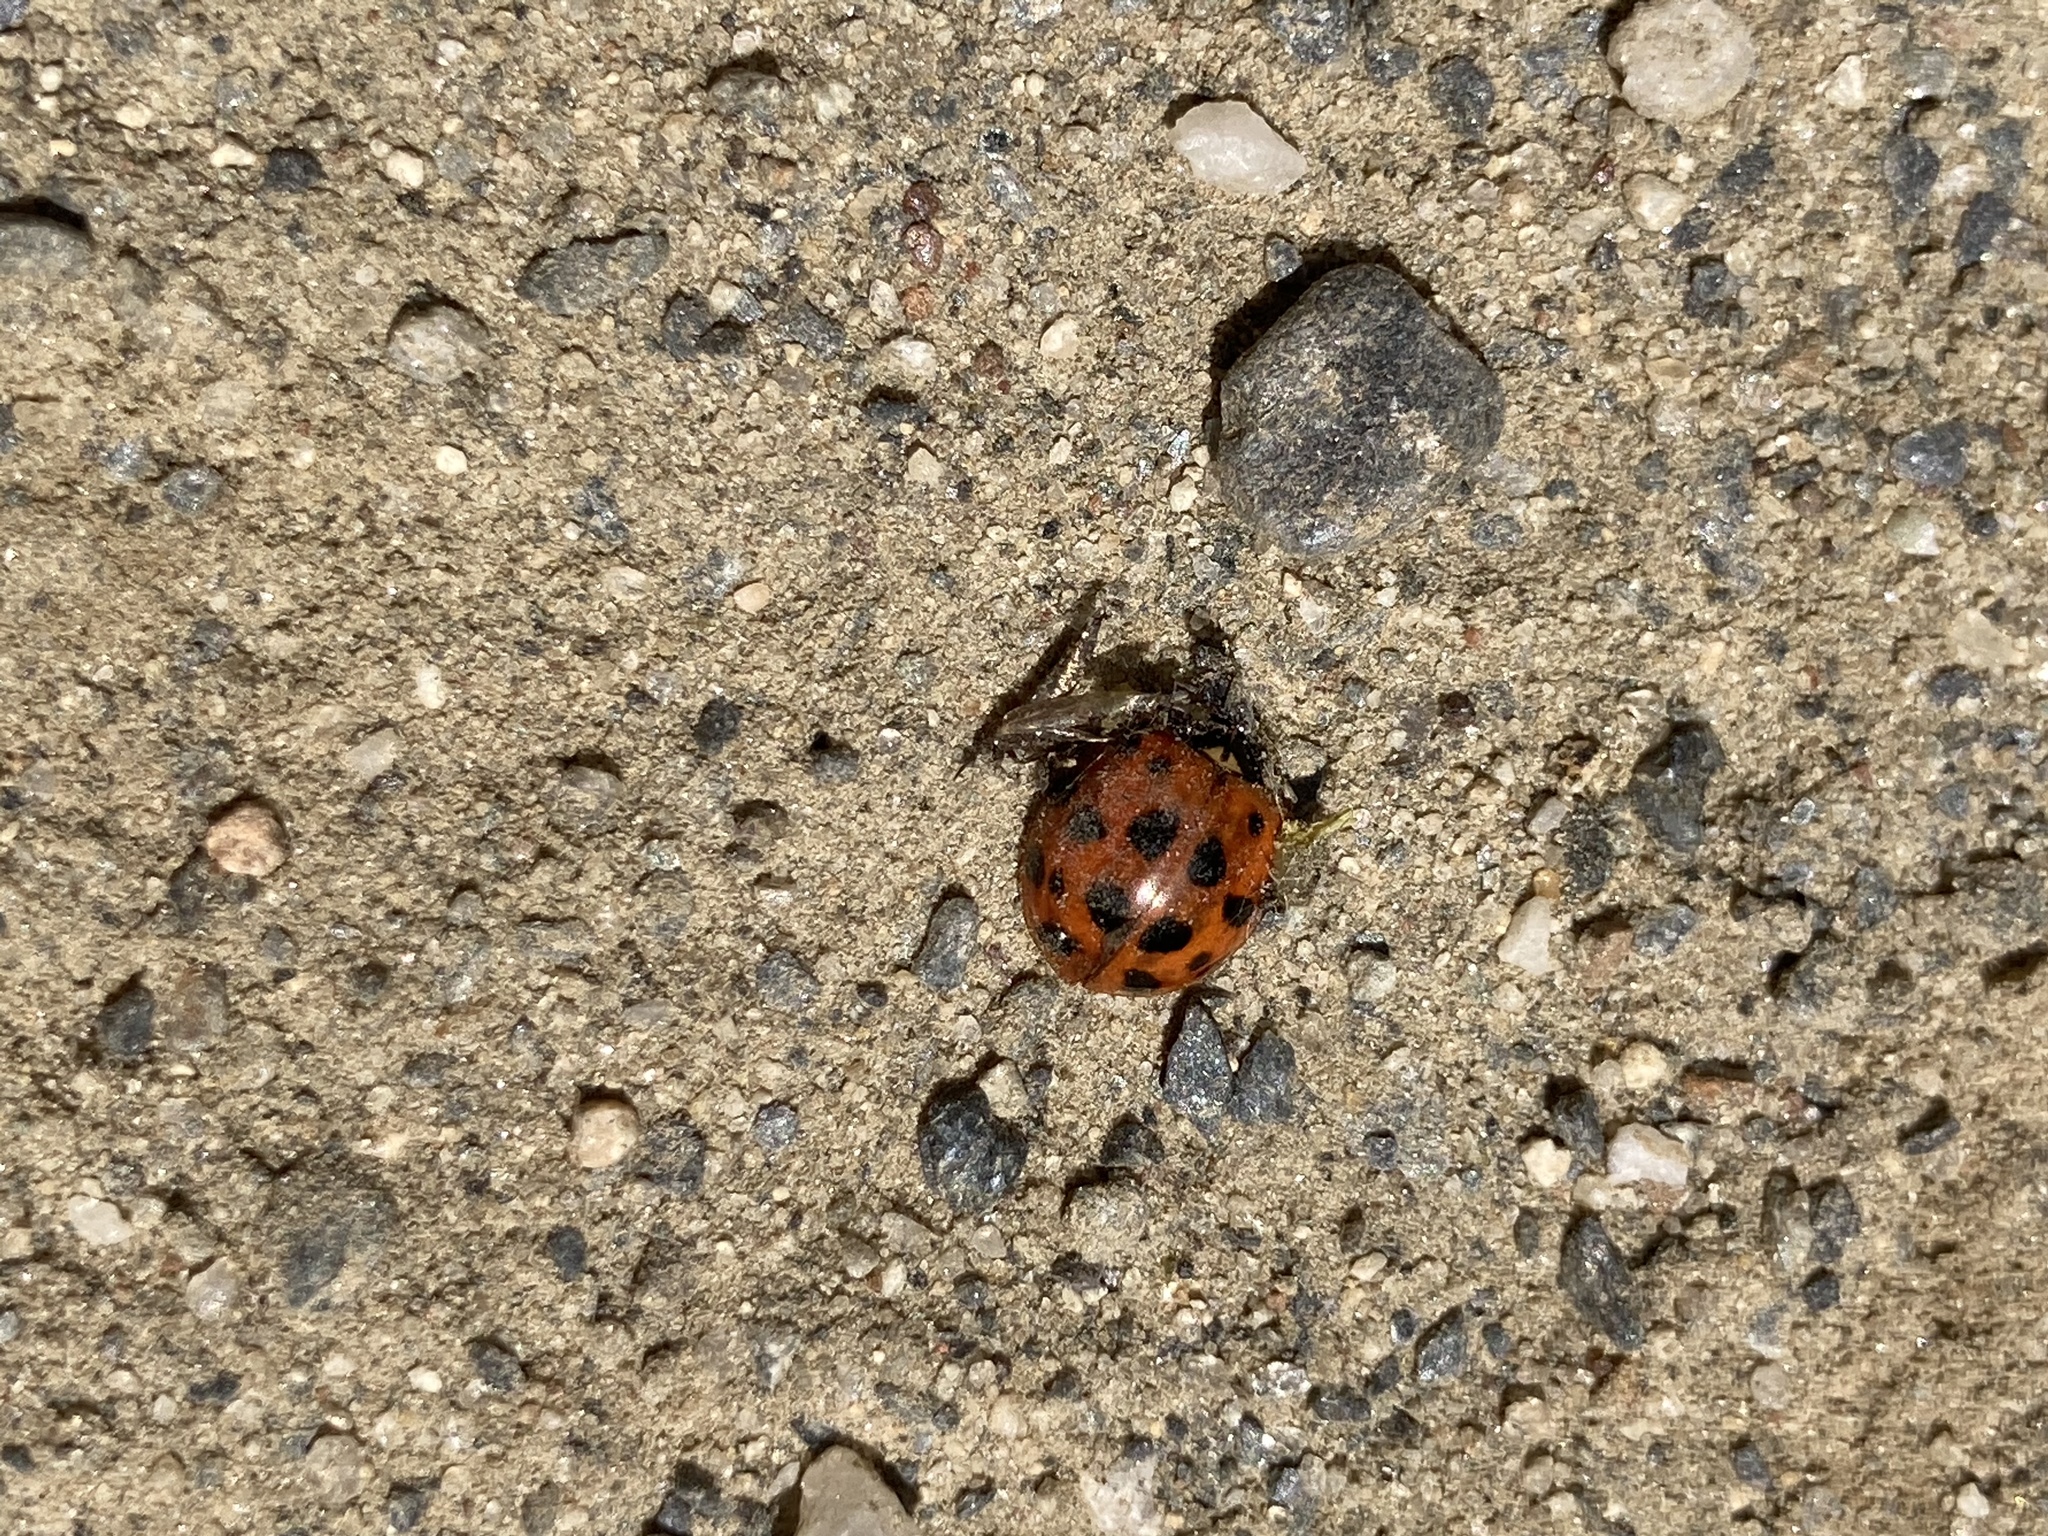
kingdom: Animalia
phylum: Arthropoda
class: Insecta
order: Coleoptera
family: Coccinellidae
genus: Harmonia
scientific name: Harmonia axyridis
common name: Harlequin ladybird
